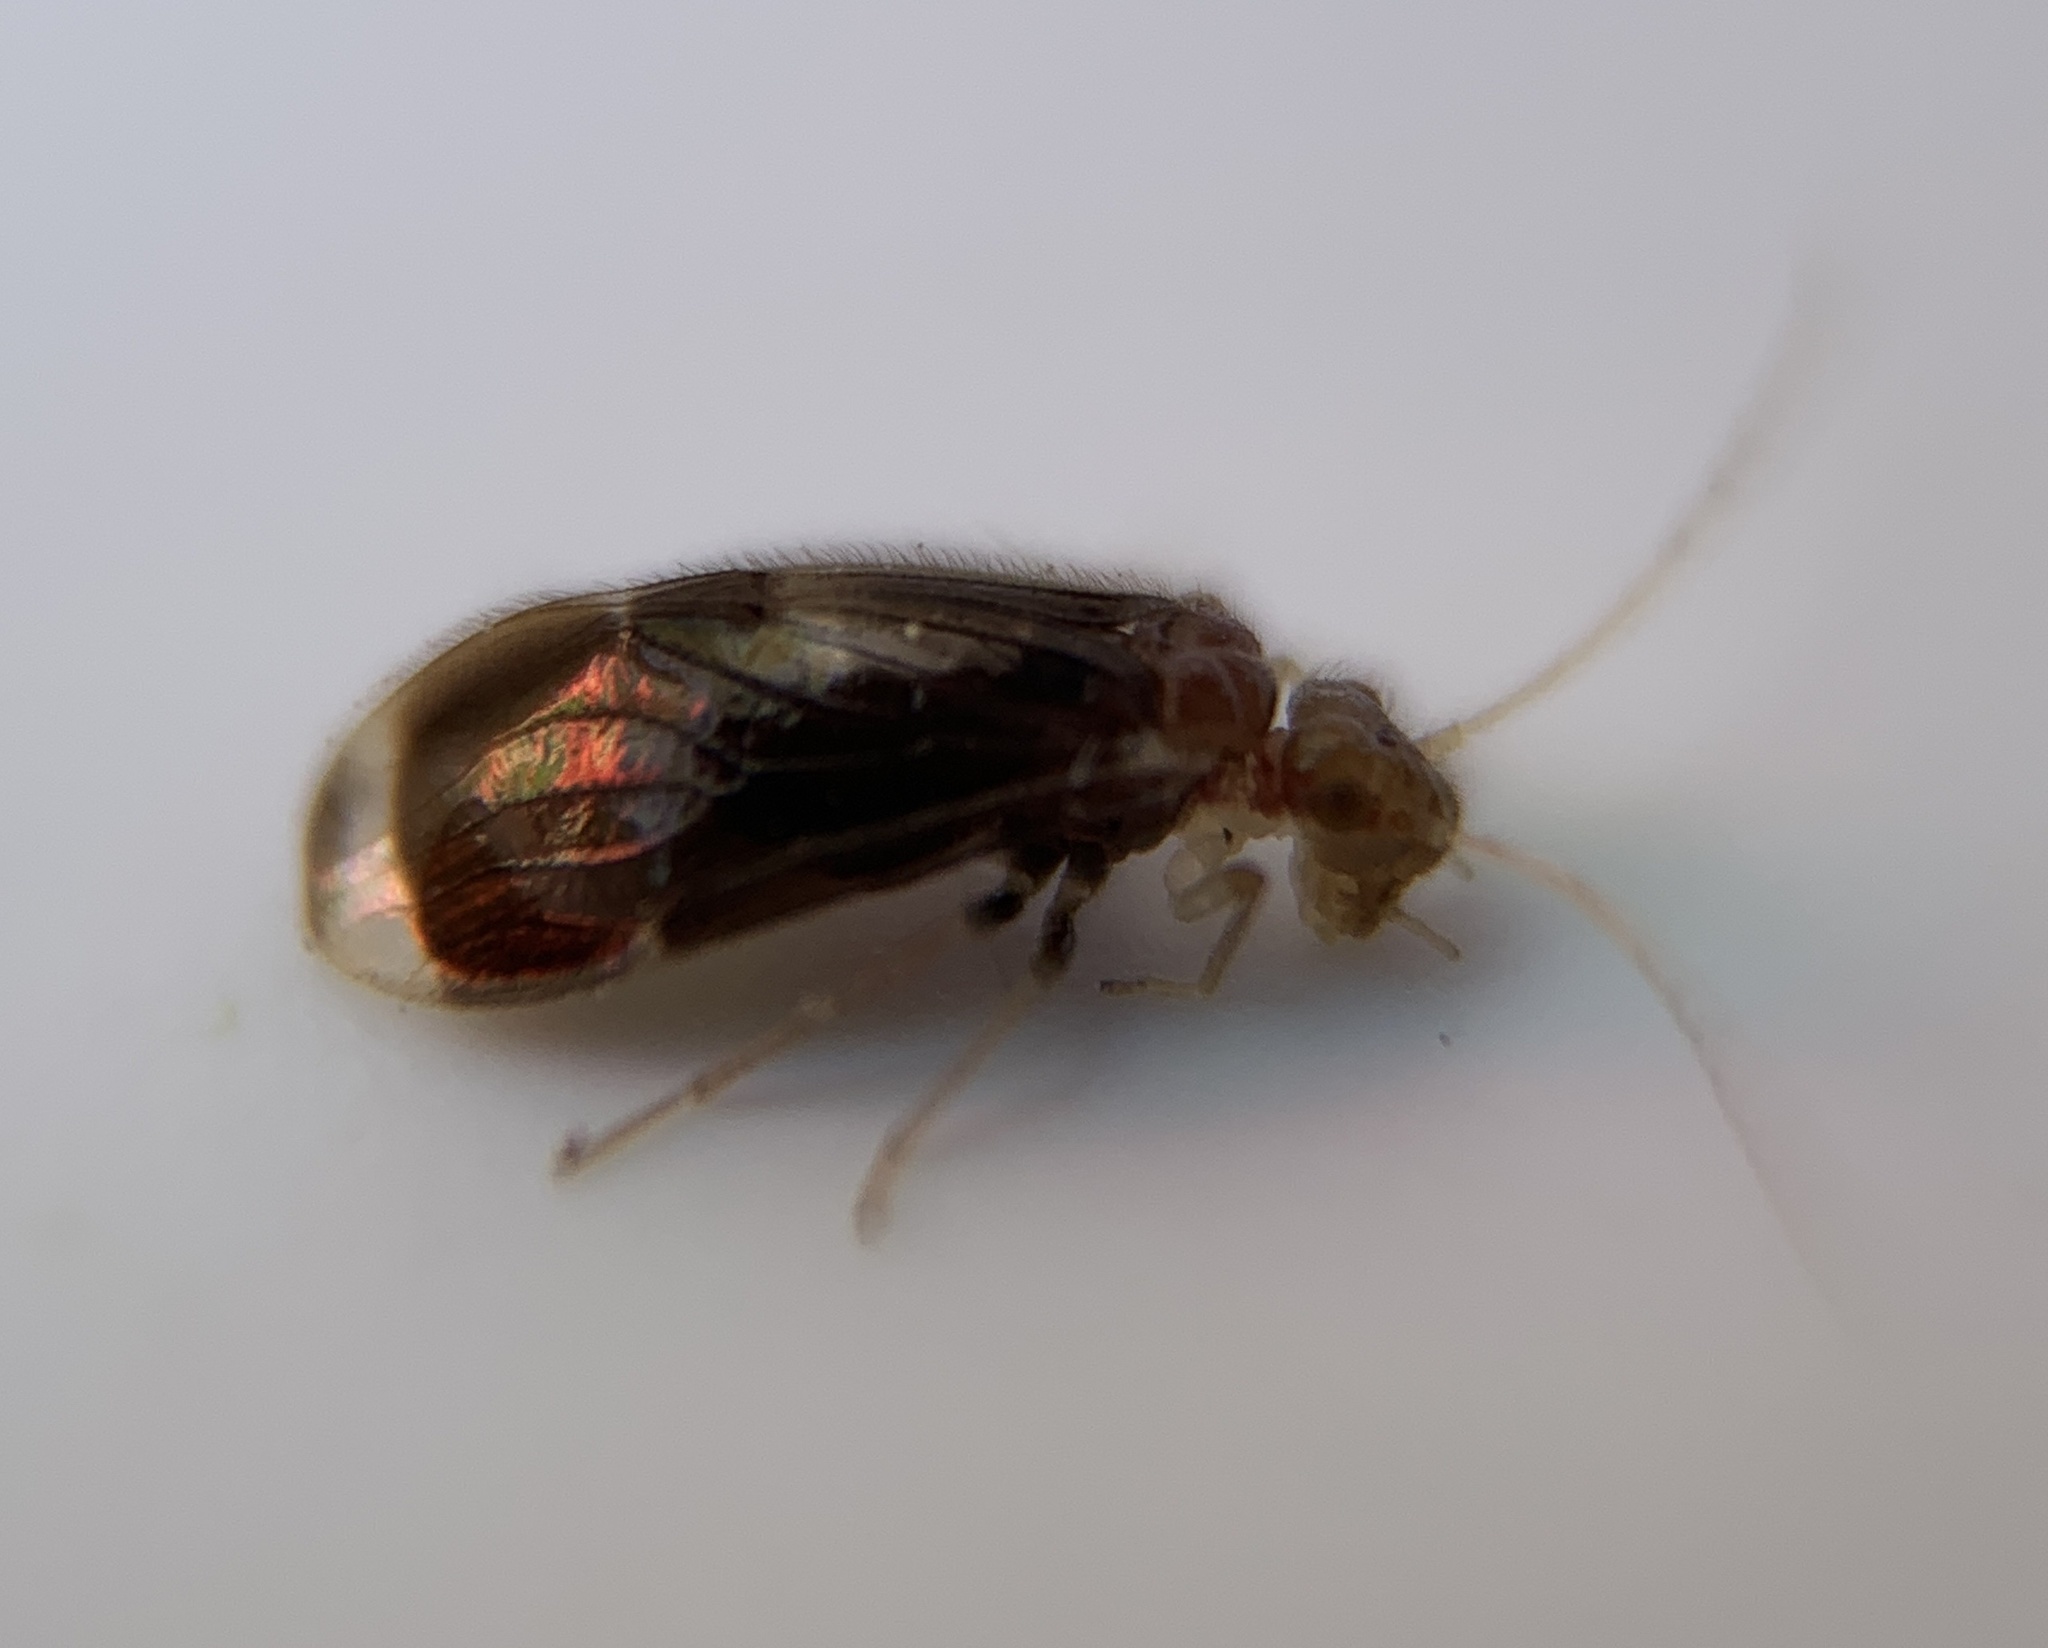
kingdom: Animalia
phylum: Arthropoda
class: Insecta
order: Psocodea
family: Amphipsocidae
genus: Polypsocus
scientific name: Polypsocus corruptus
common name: Corrupt barklouse
